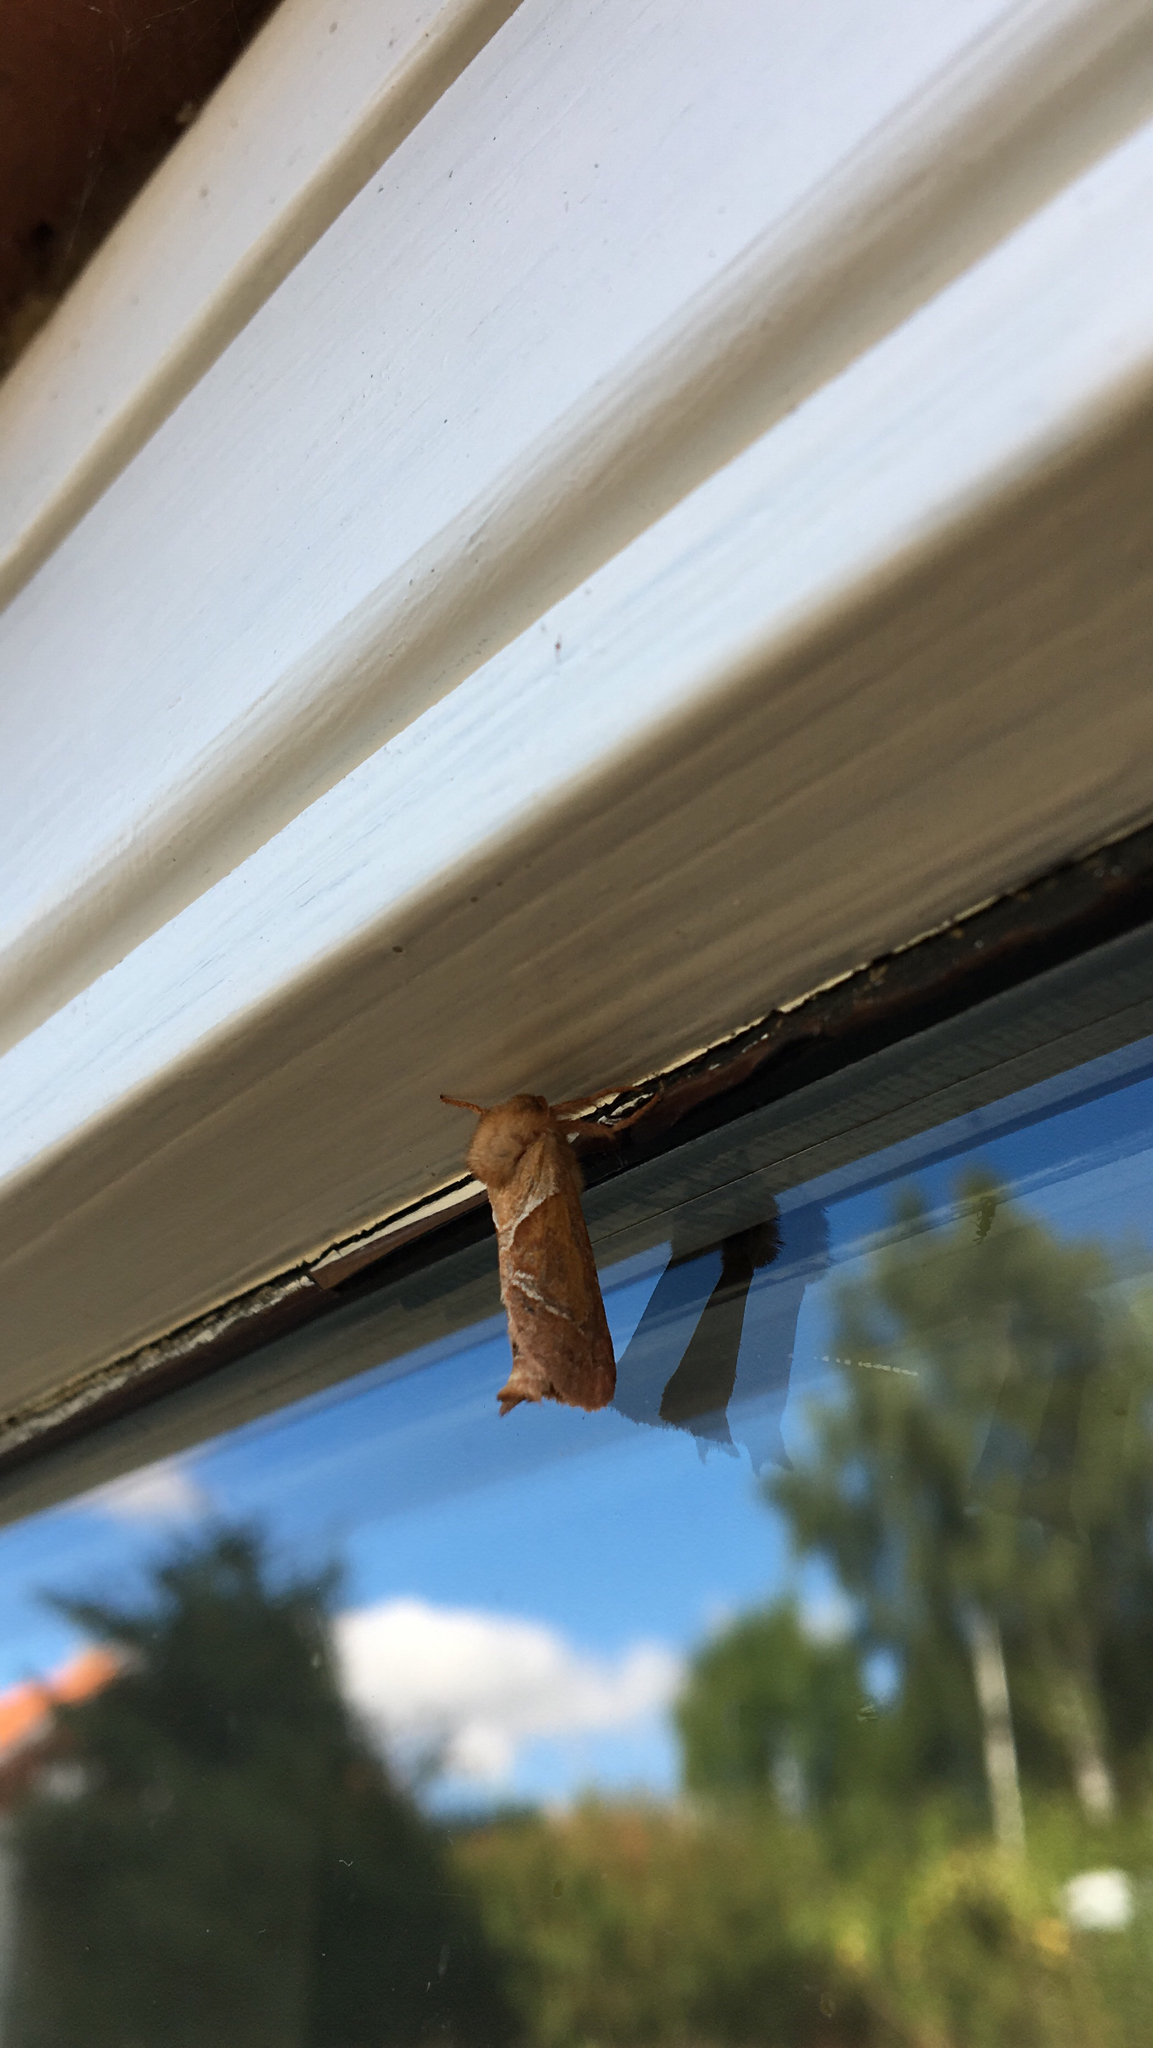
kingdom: Animalia
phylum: Arthropoda
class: Insecta
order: Lepidoptera
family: Hepialidae
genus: Triodia
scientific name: Triodia sylvina
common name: Orange swift
